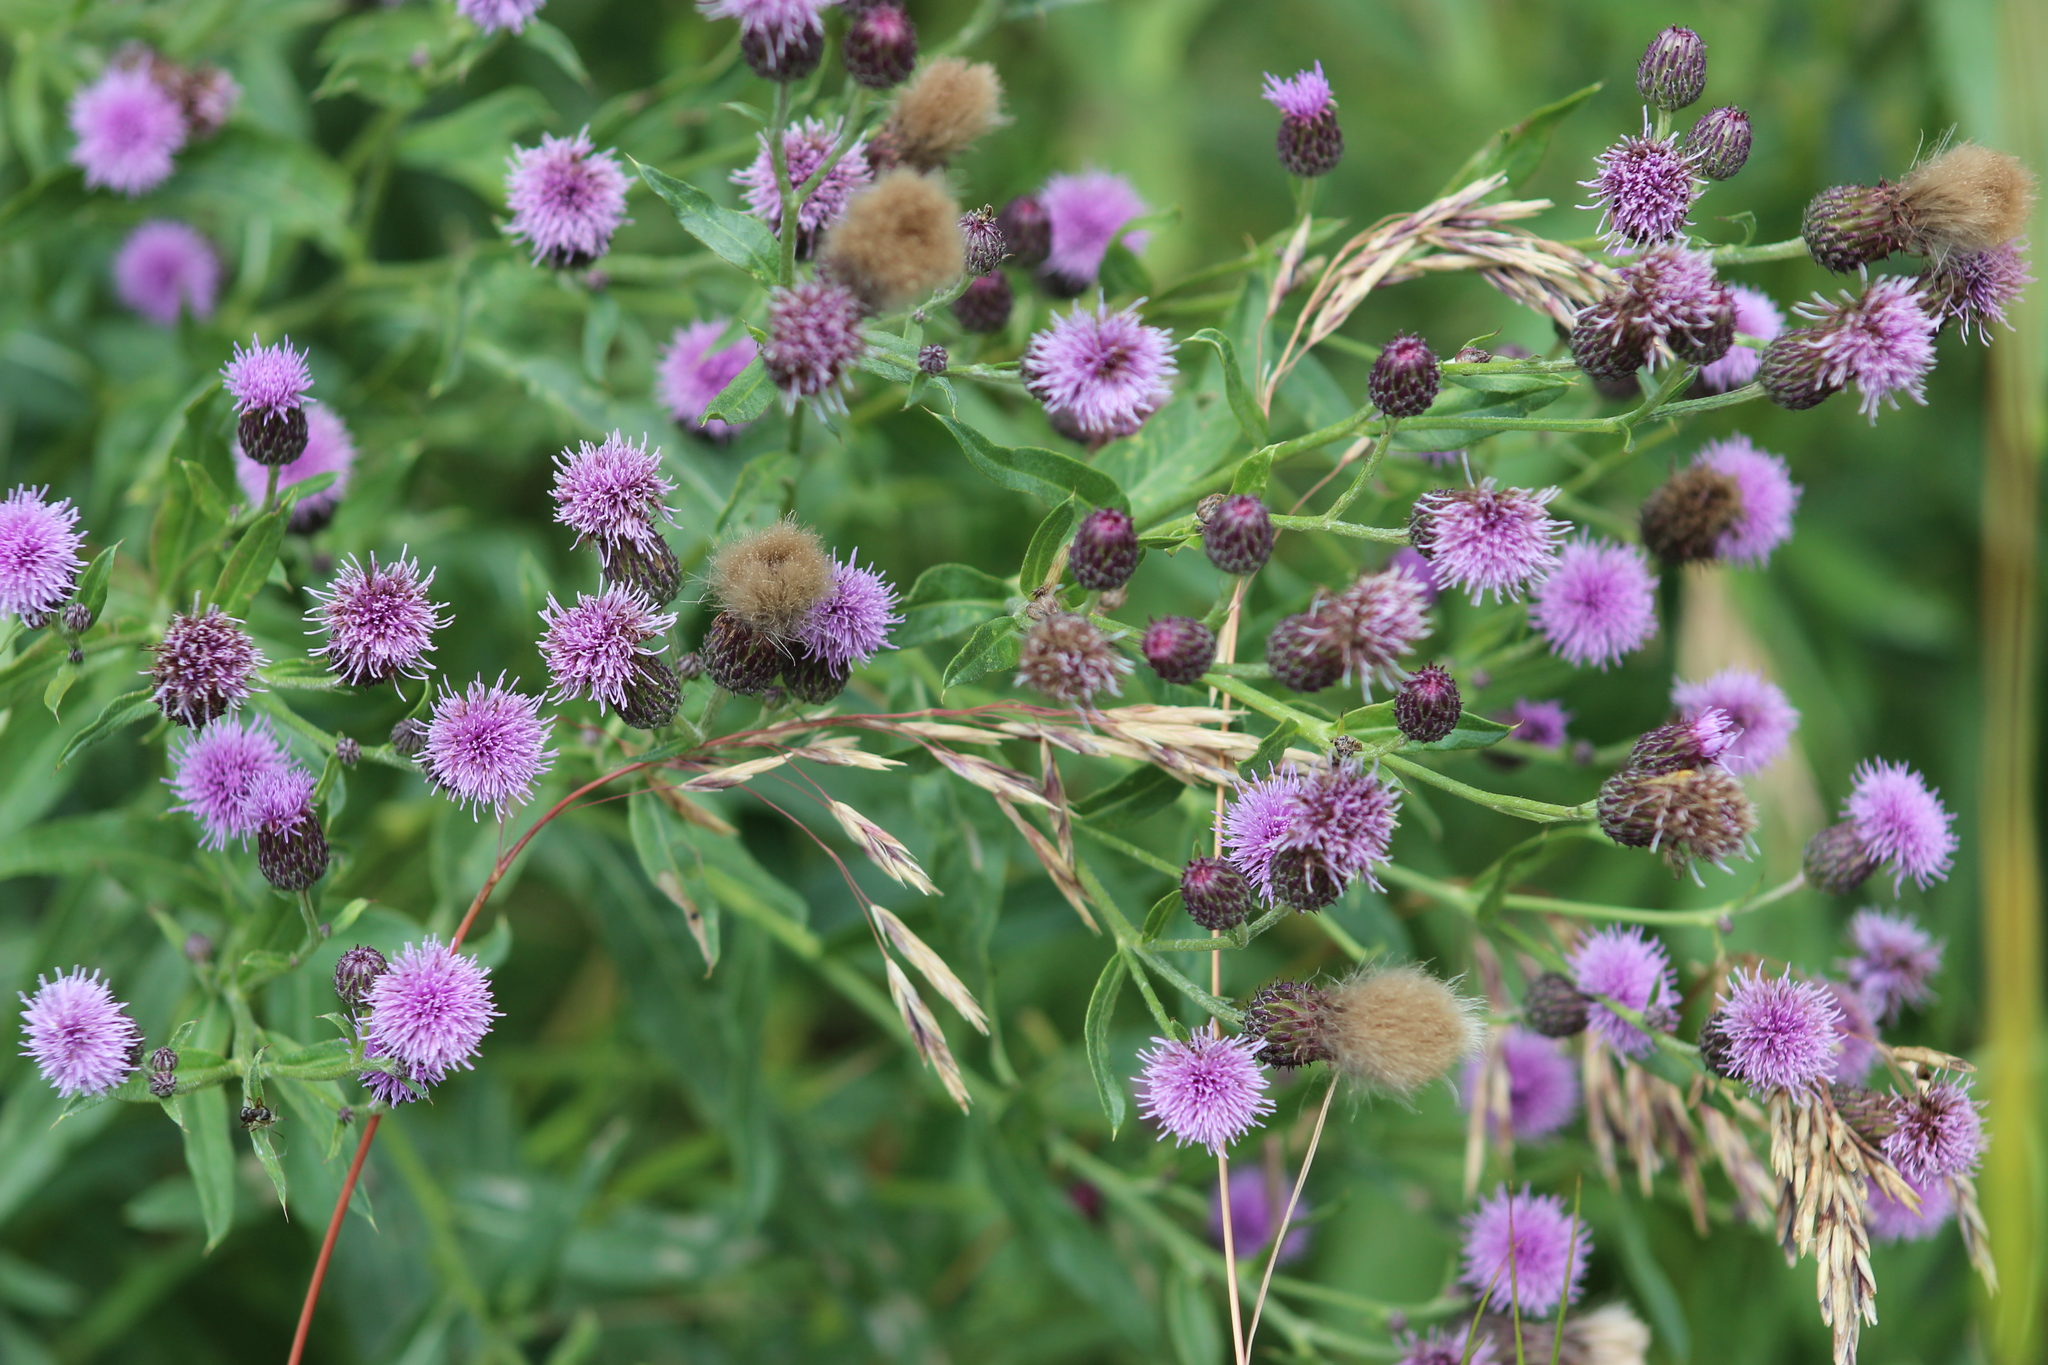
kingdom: Plantae
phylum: Tracheophyta
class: Magnoliopsida
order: Asterales
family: Asteraceae
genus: Cirsium
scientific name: Cirsium arvense
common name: Creeping thistle
